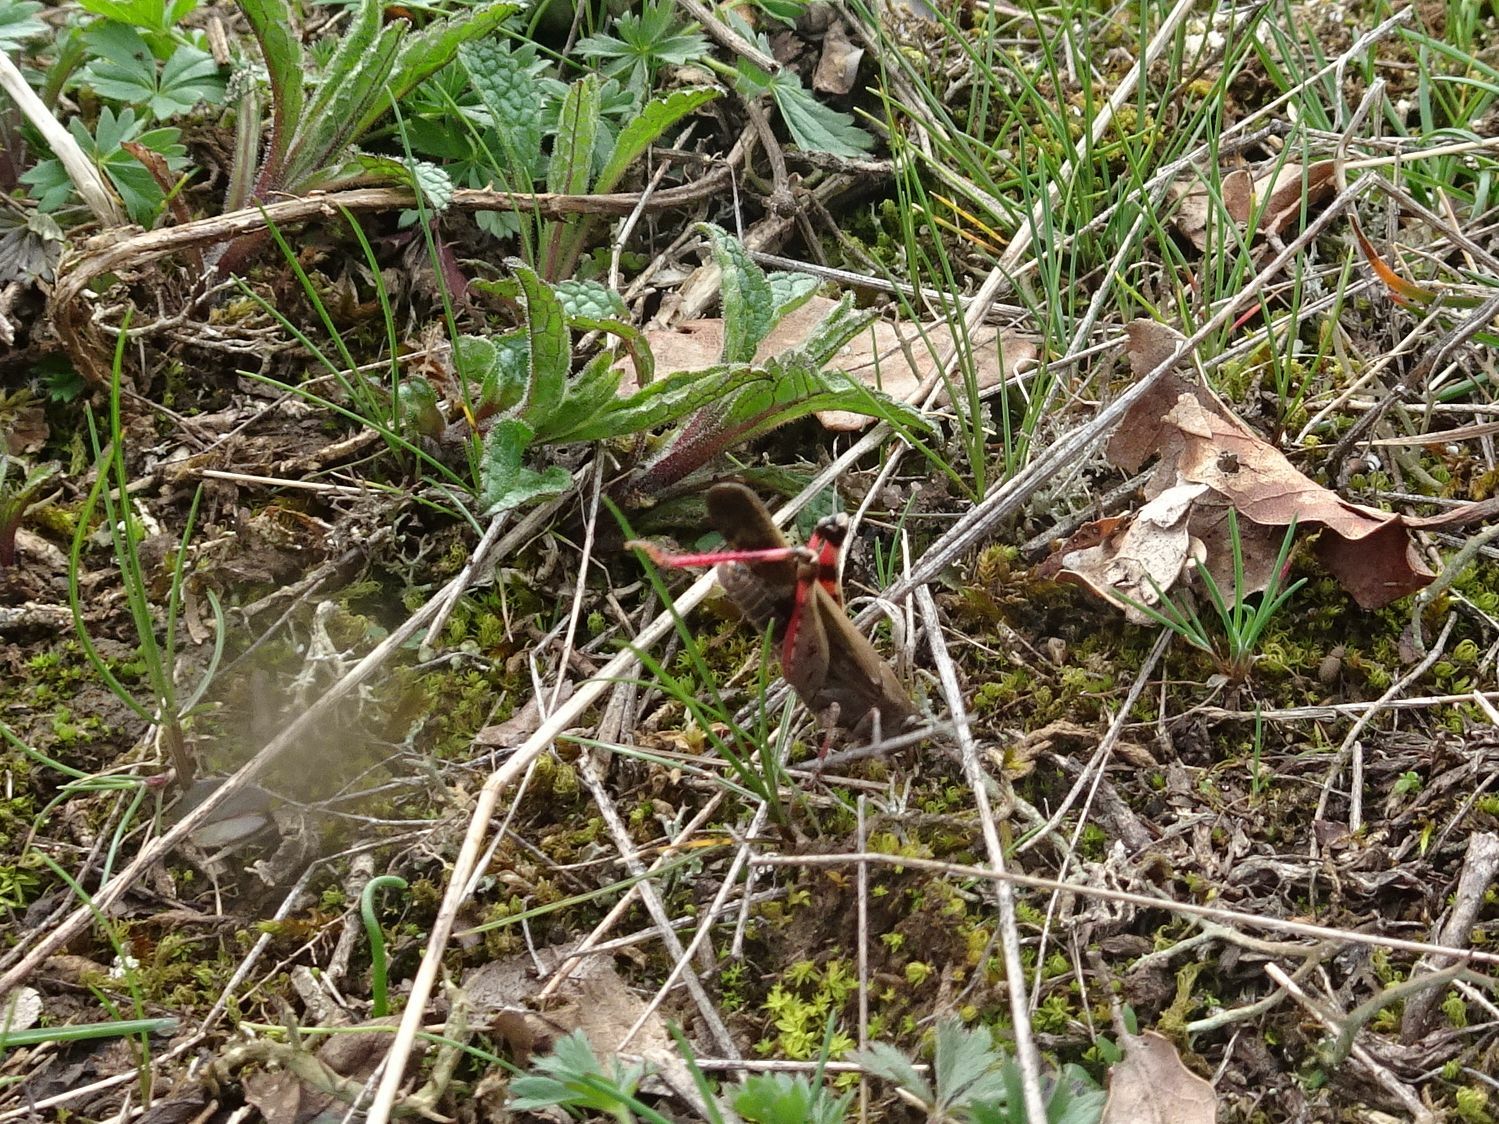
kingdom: Animalia
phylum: Arthropoda
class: Insecta
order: Orthoptera
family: Acrididae
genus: Aiolopus
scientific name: Aiolopus strepens
